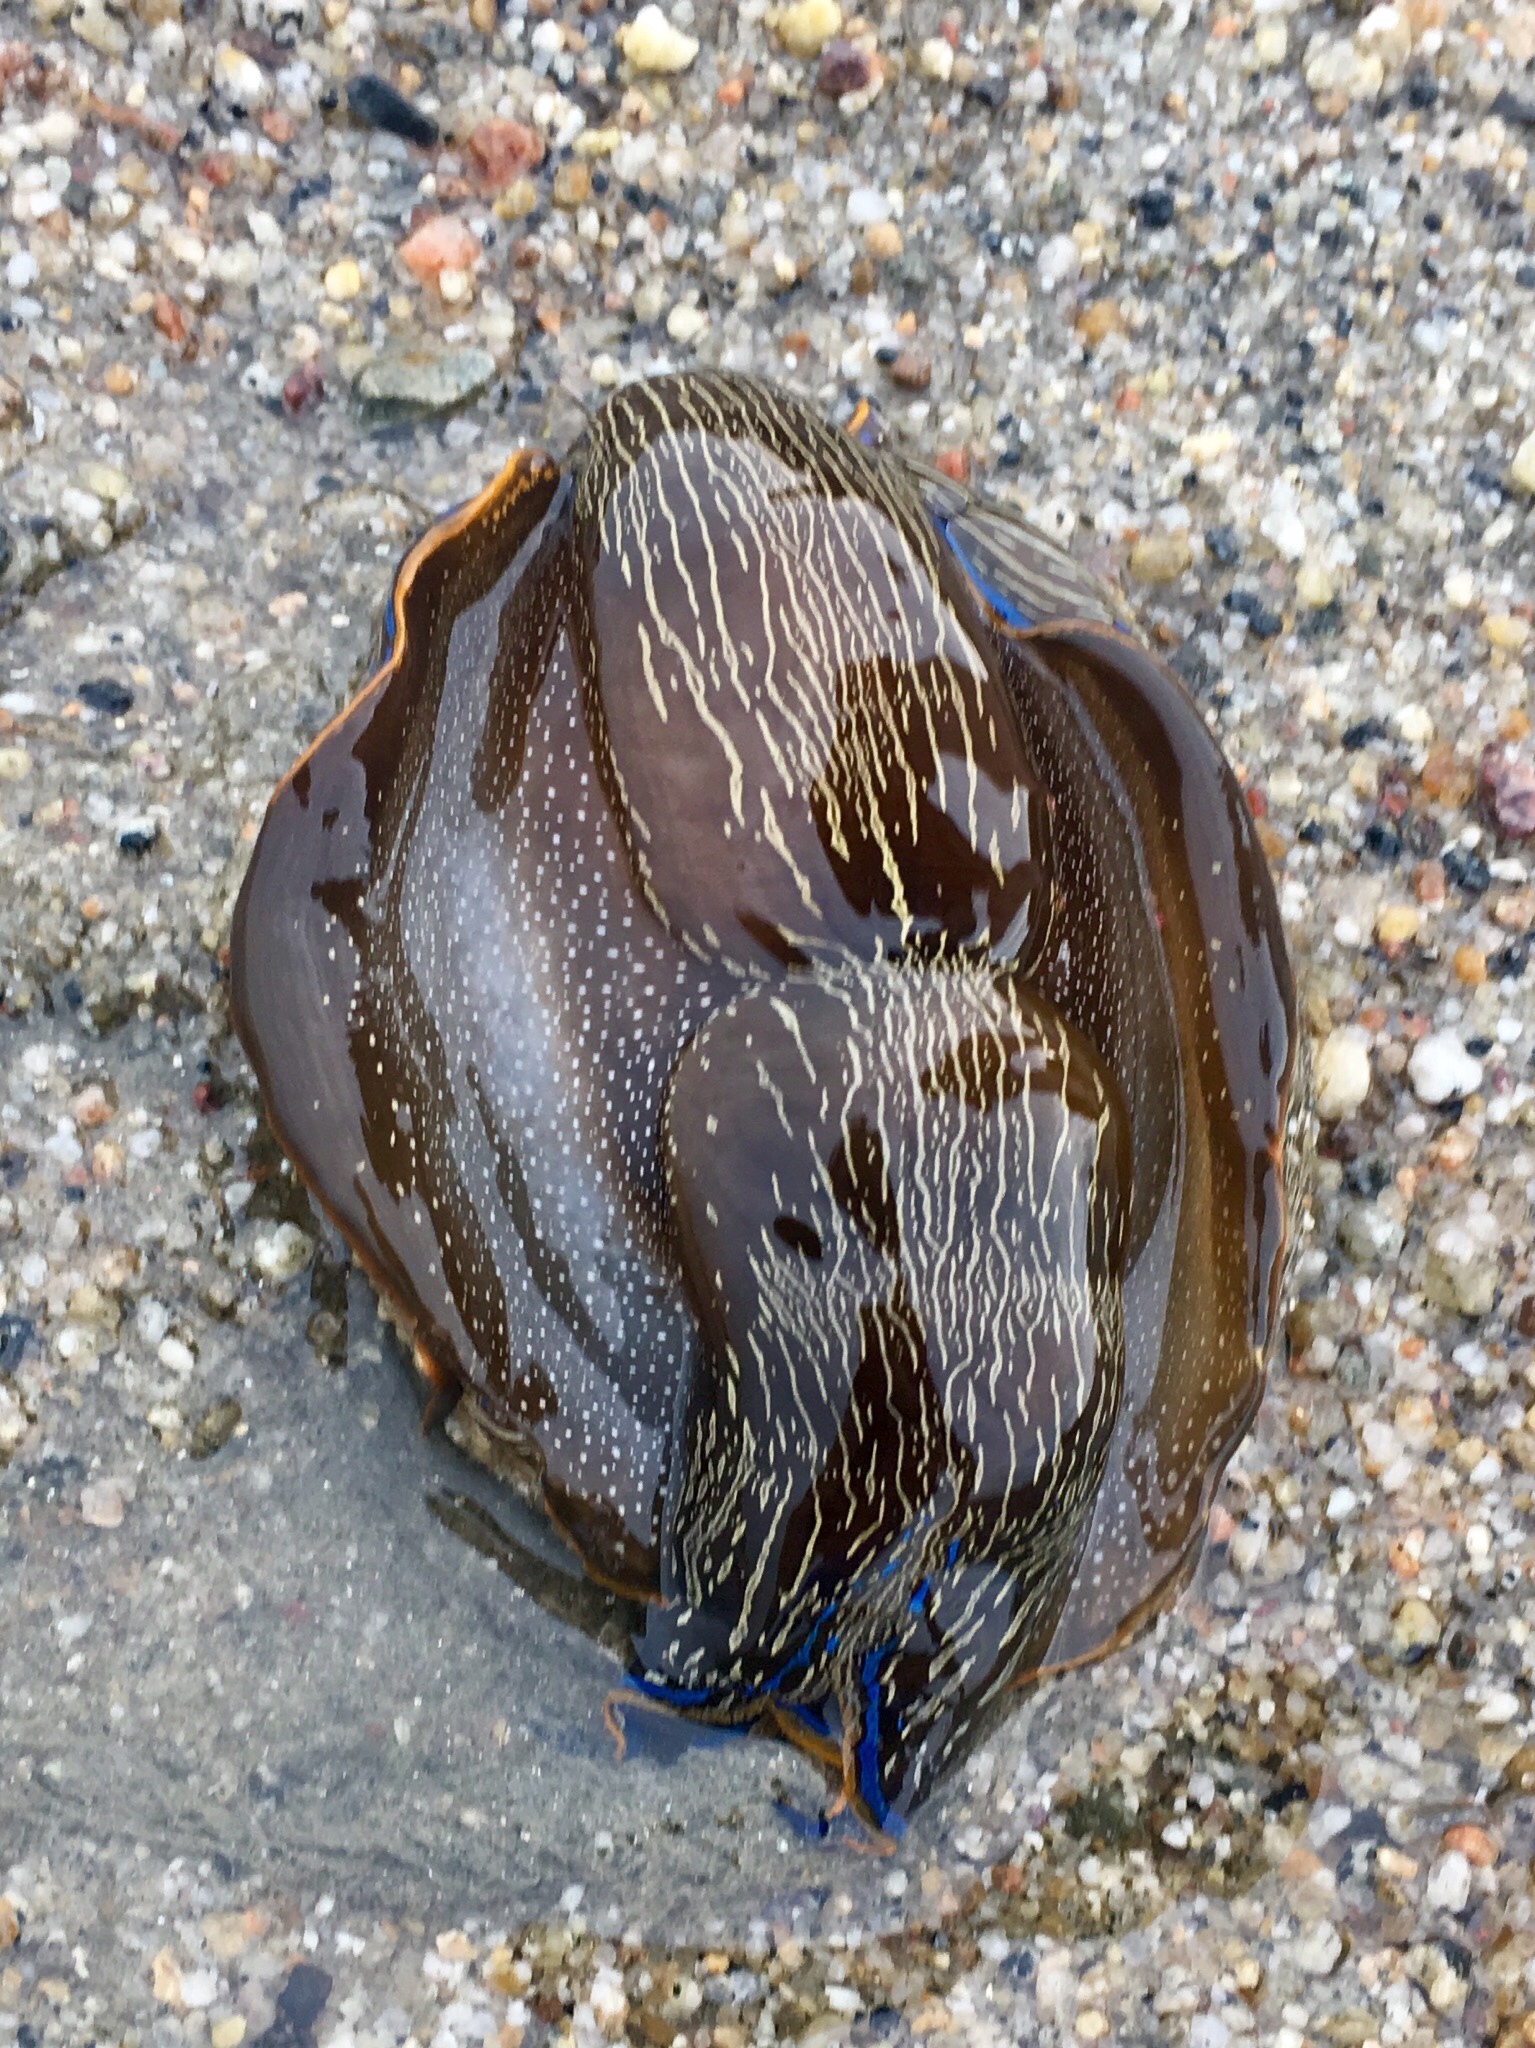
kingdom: Animalia
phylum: Mollusca
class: Gastropoda
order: Cephalaspidea
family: Aglajidae
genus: Navanax
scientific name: Navanax inermis
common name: California aglaja
